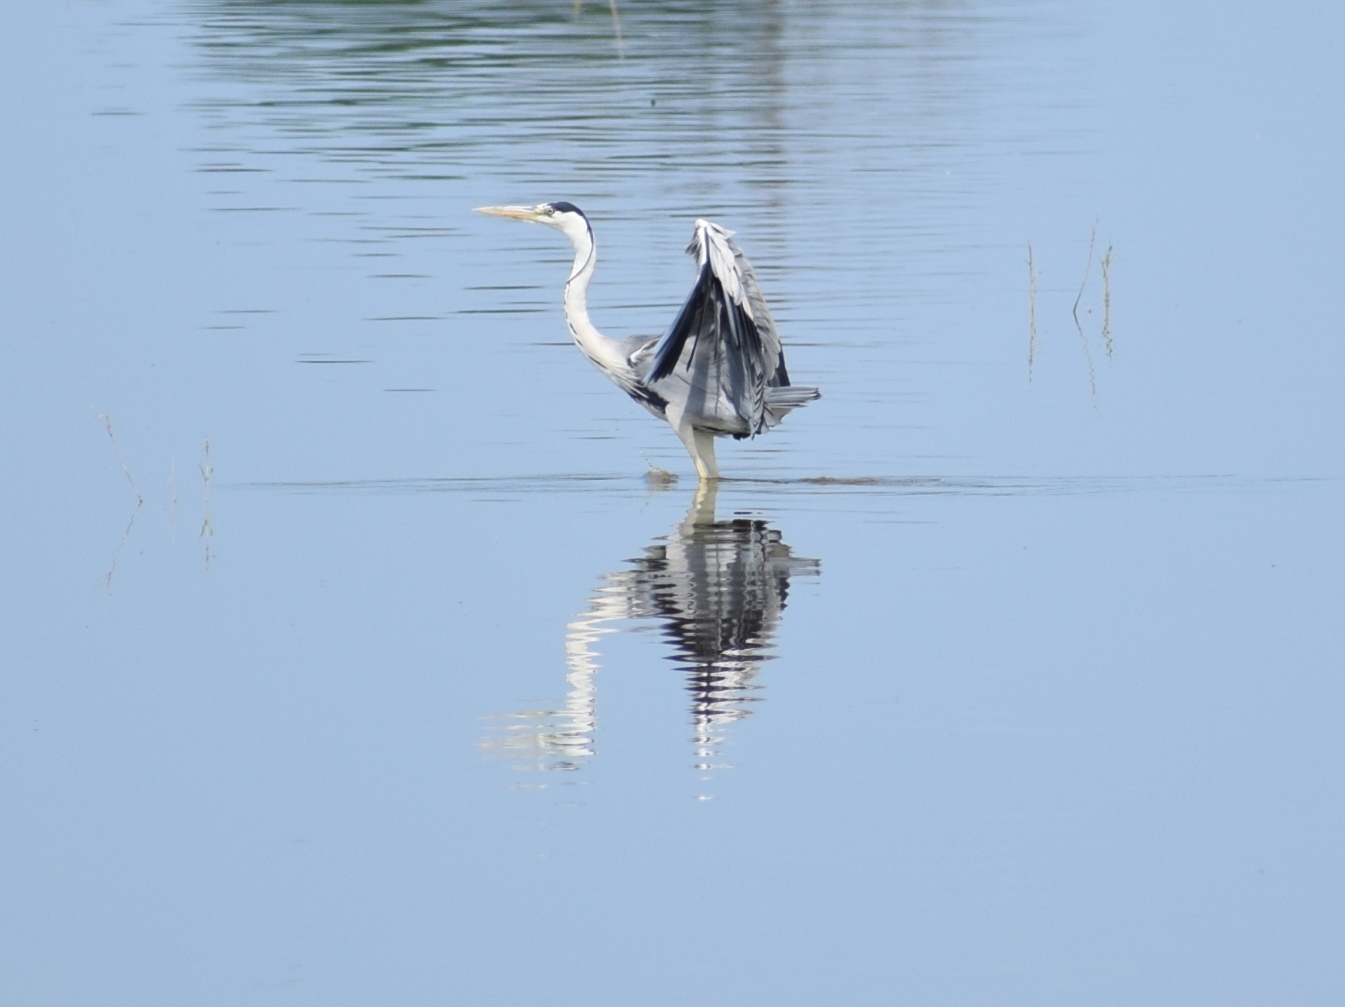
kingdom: Animalia
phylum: Chordata
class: Aves
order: Pelecaniformes
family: Ardeidae
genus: Ardea
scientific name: Ardea cinerea
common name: Grey heron
